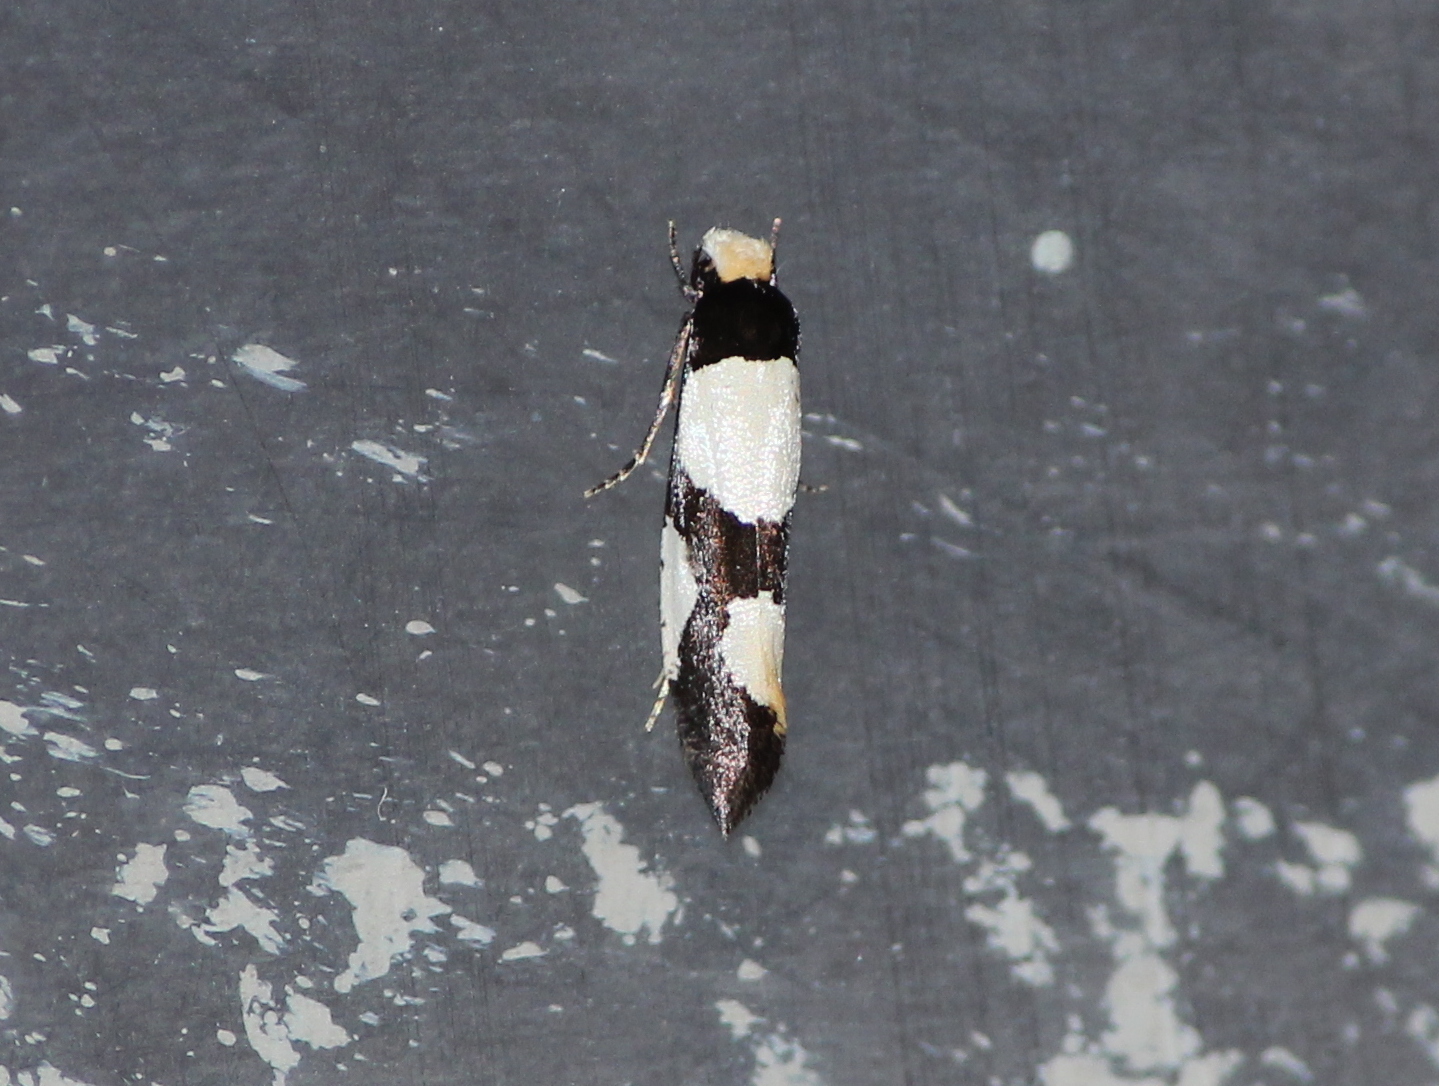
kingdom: Animalia
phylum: Arthropoda
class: Insecta
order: Lepidoptera
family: Tineidae
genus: Monopis
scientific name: Monopis trimaculella
